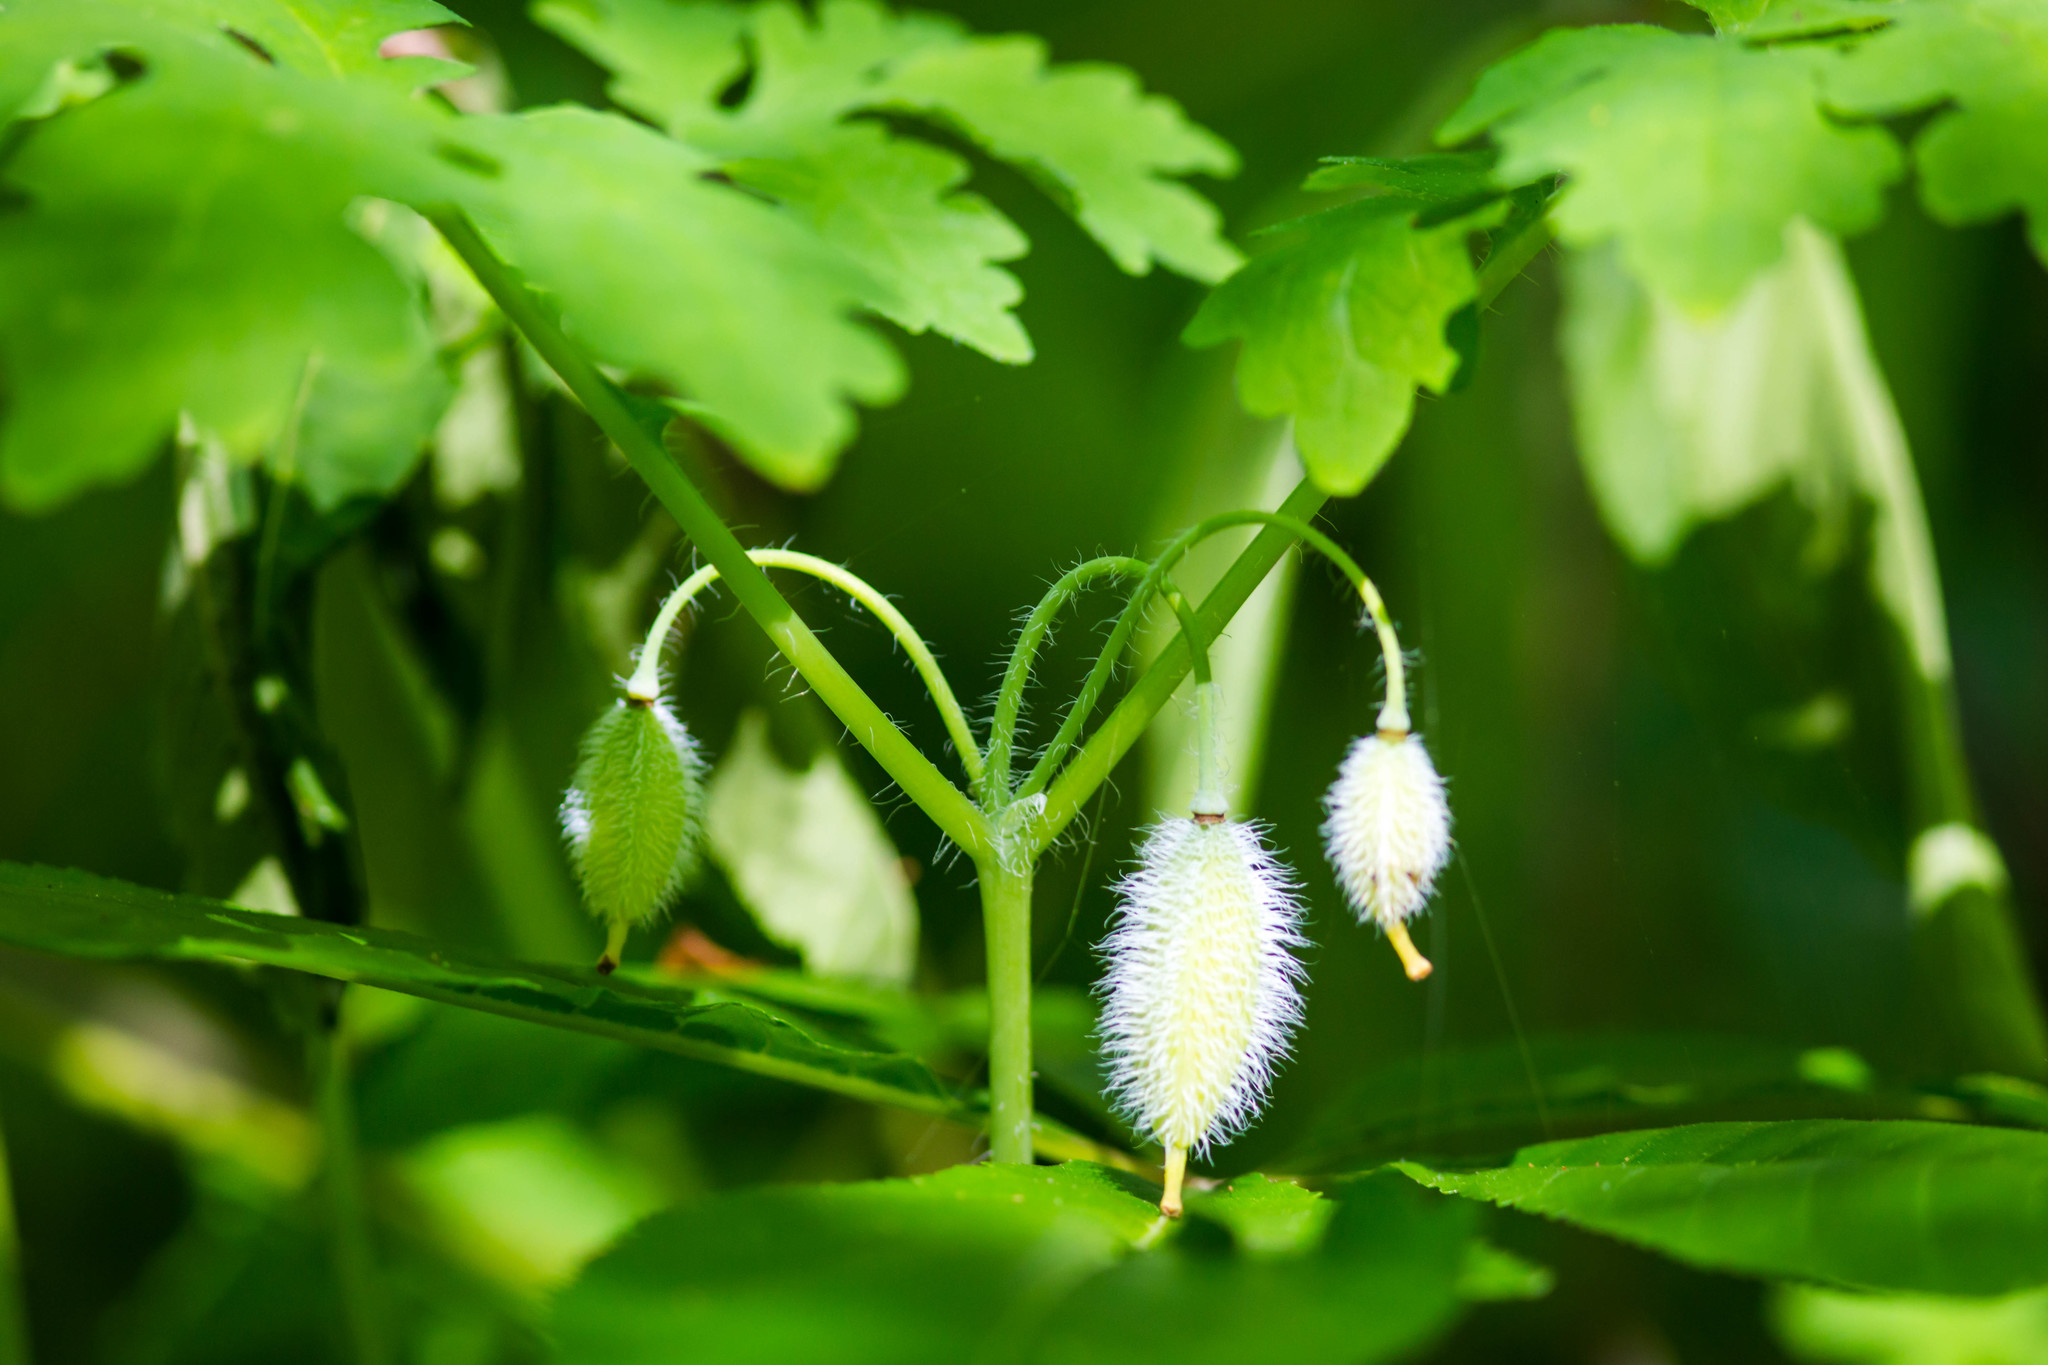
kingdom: Plantae
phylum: Tracheophyta
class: Magnoliopsida
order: Ranunculales
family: Papaveraceae
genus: Stylophorum
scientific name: Stylophorum diphyllum
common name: Celandine poppy
